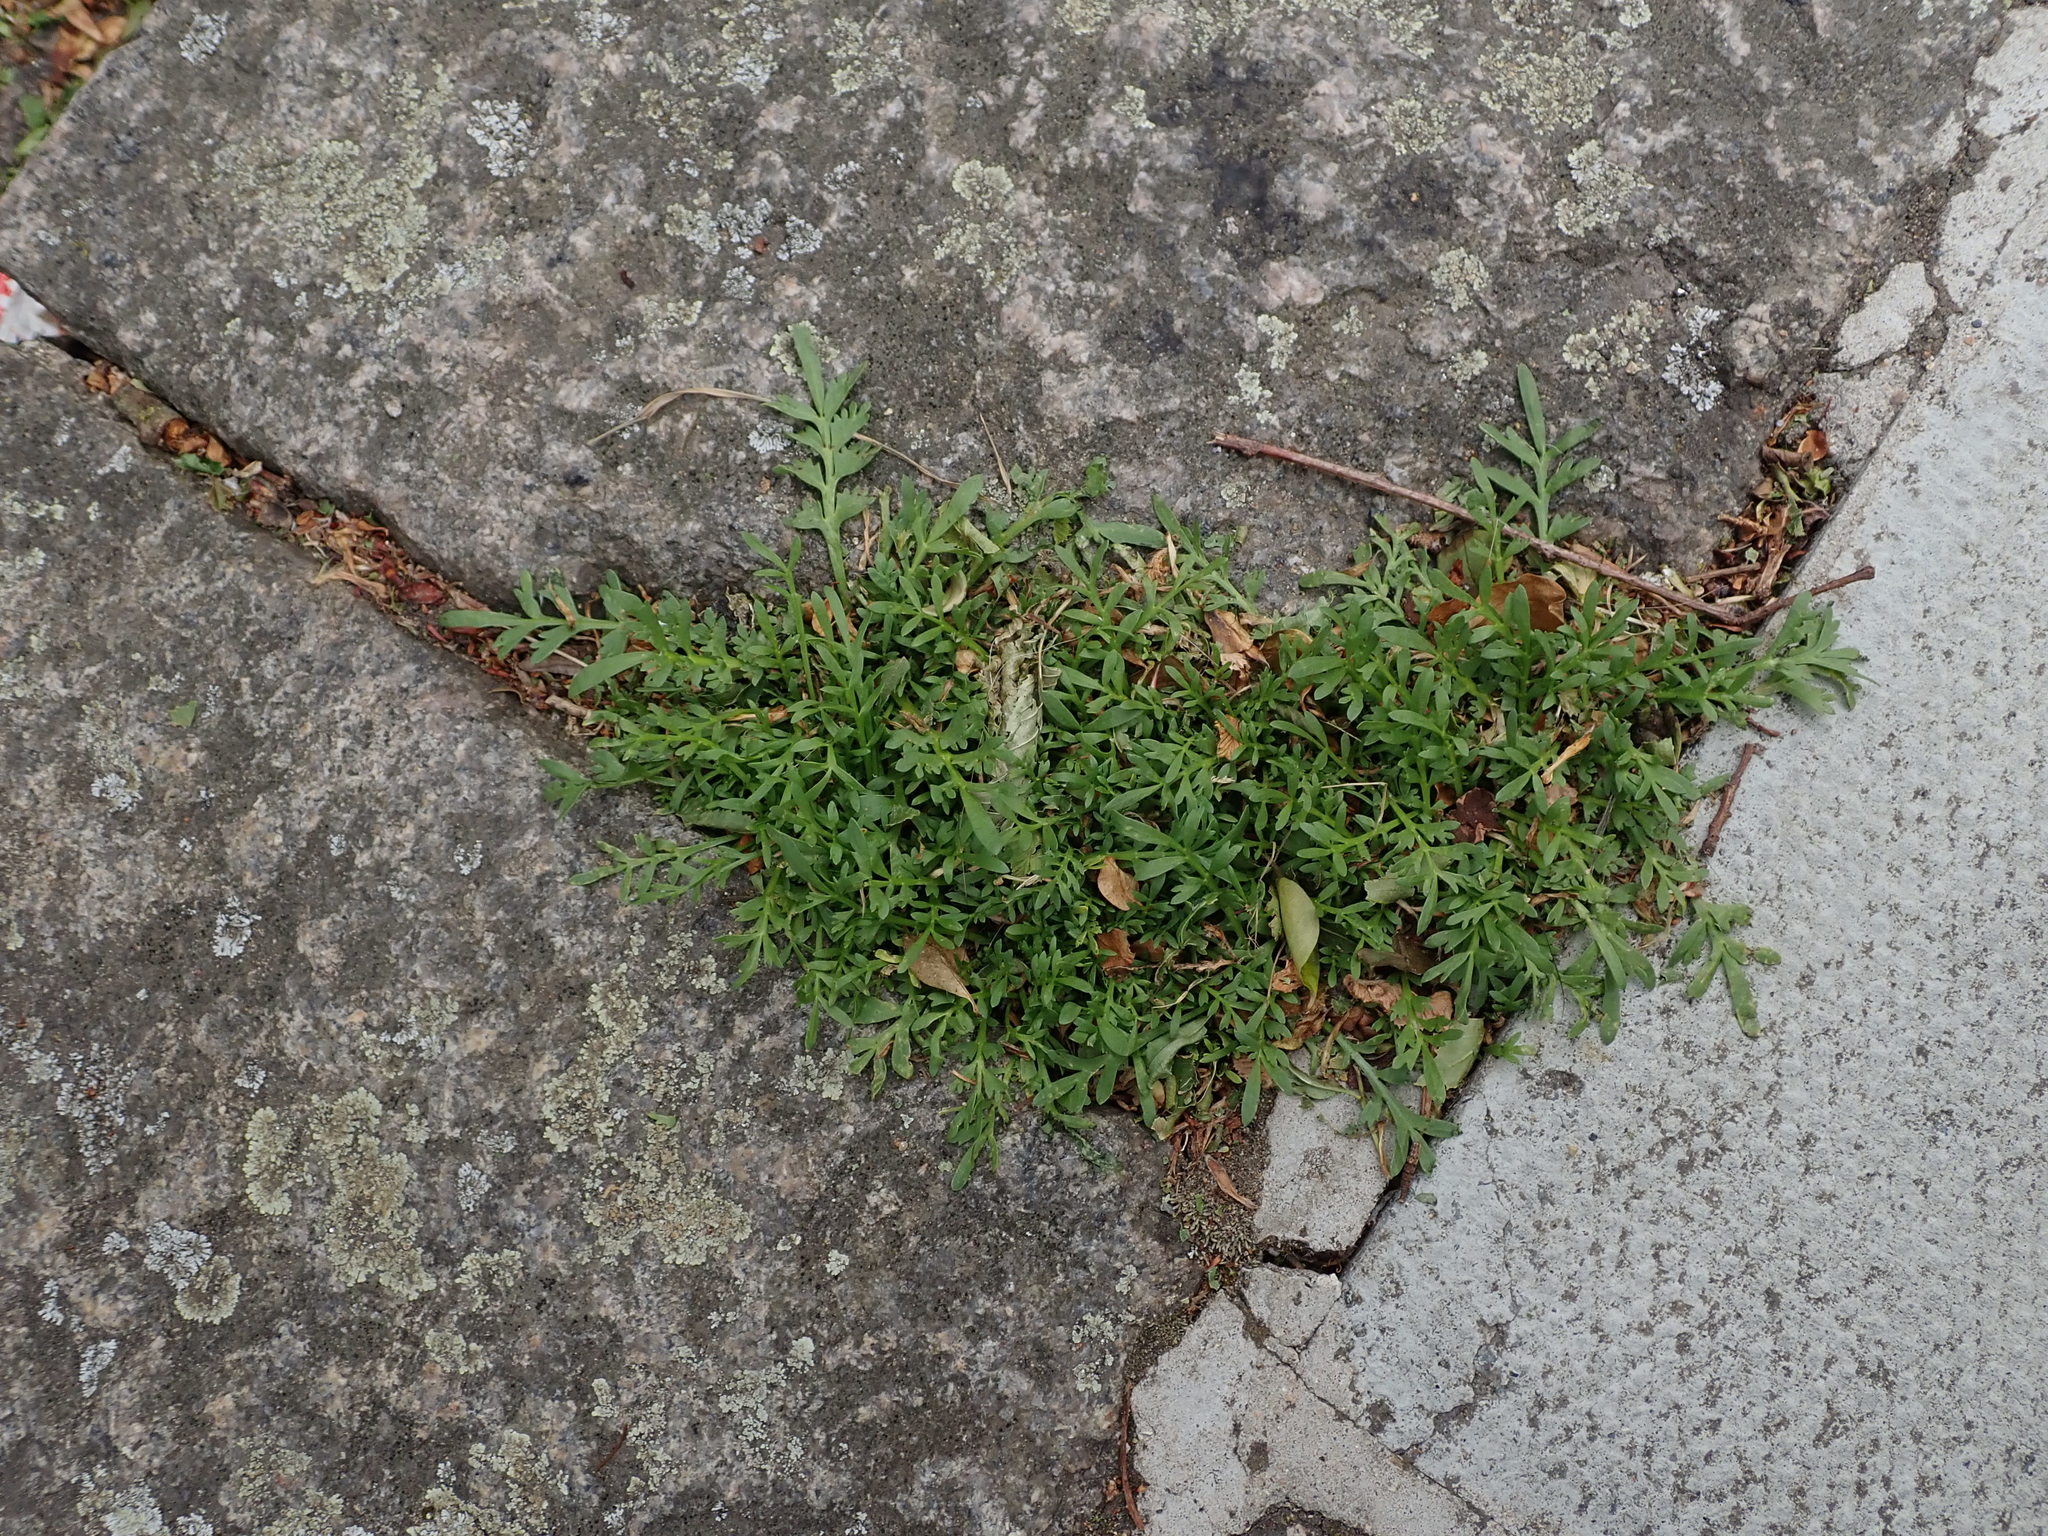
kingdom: Plantae
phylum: Tracheophyta
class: Magnoliopsida
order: Brassicales
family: Brassicaceae
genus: Lepidium
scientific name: Lepidium didymum
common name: Lesser swinecress
